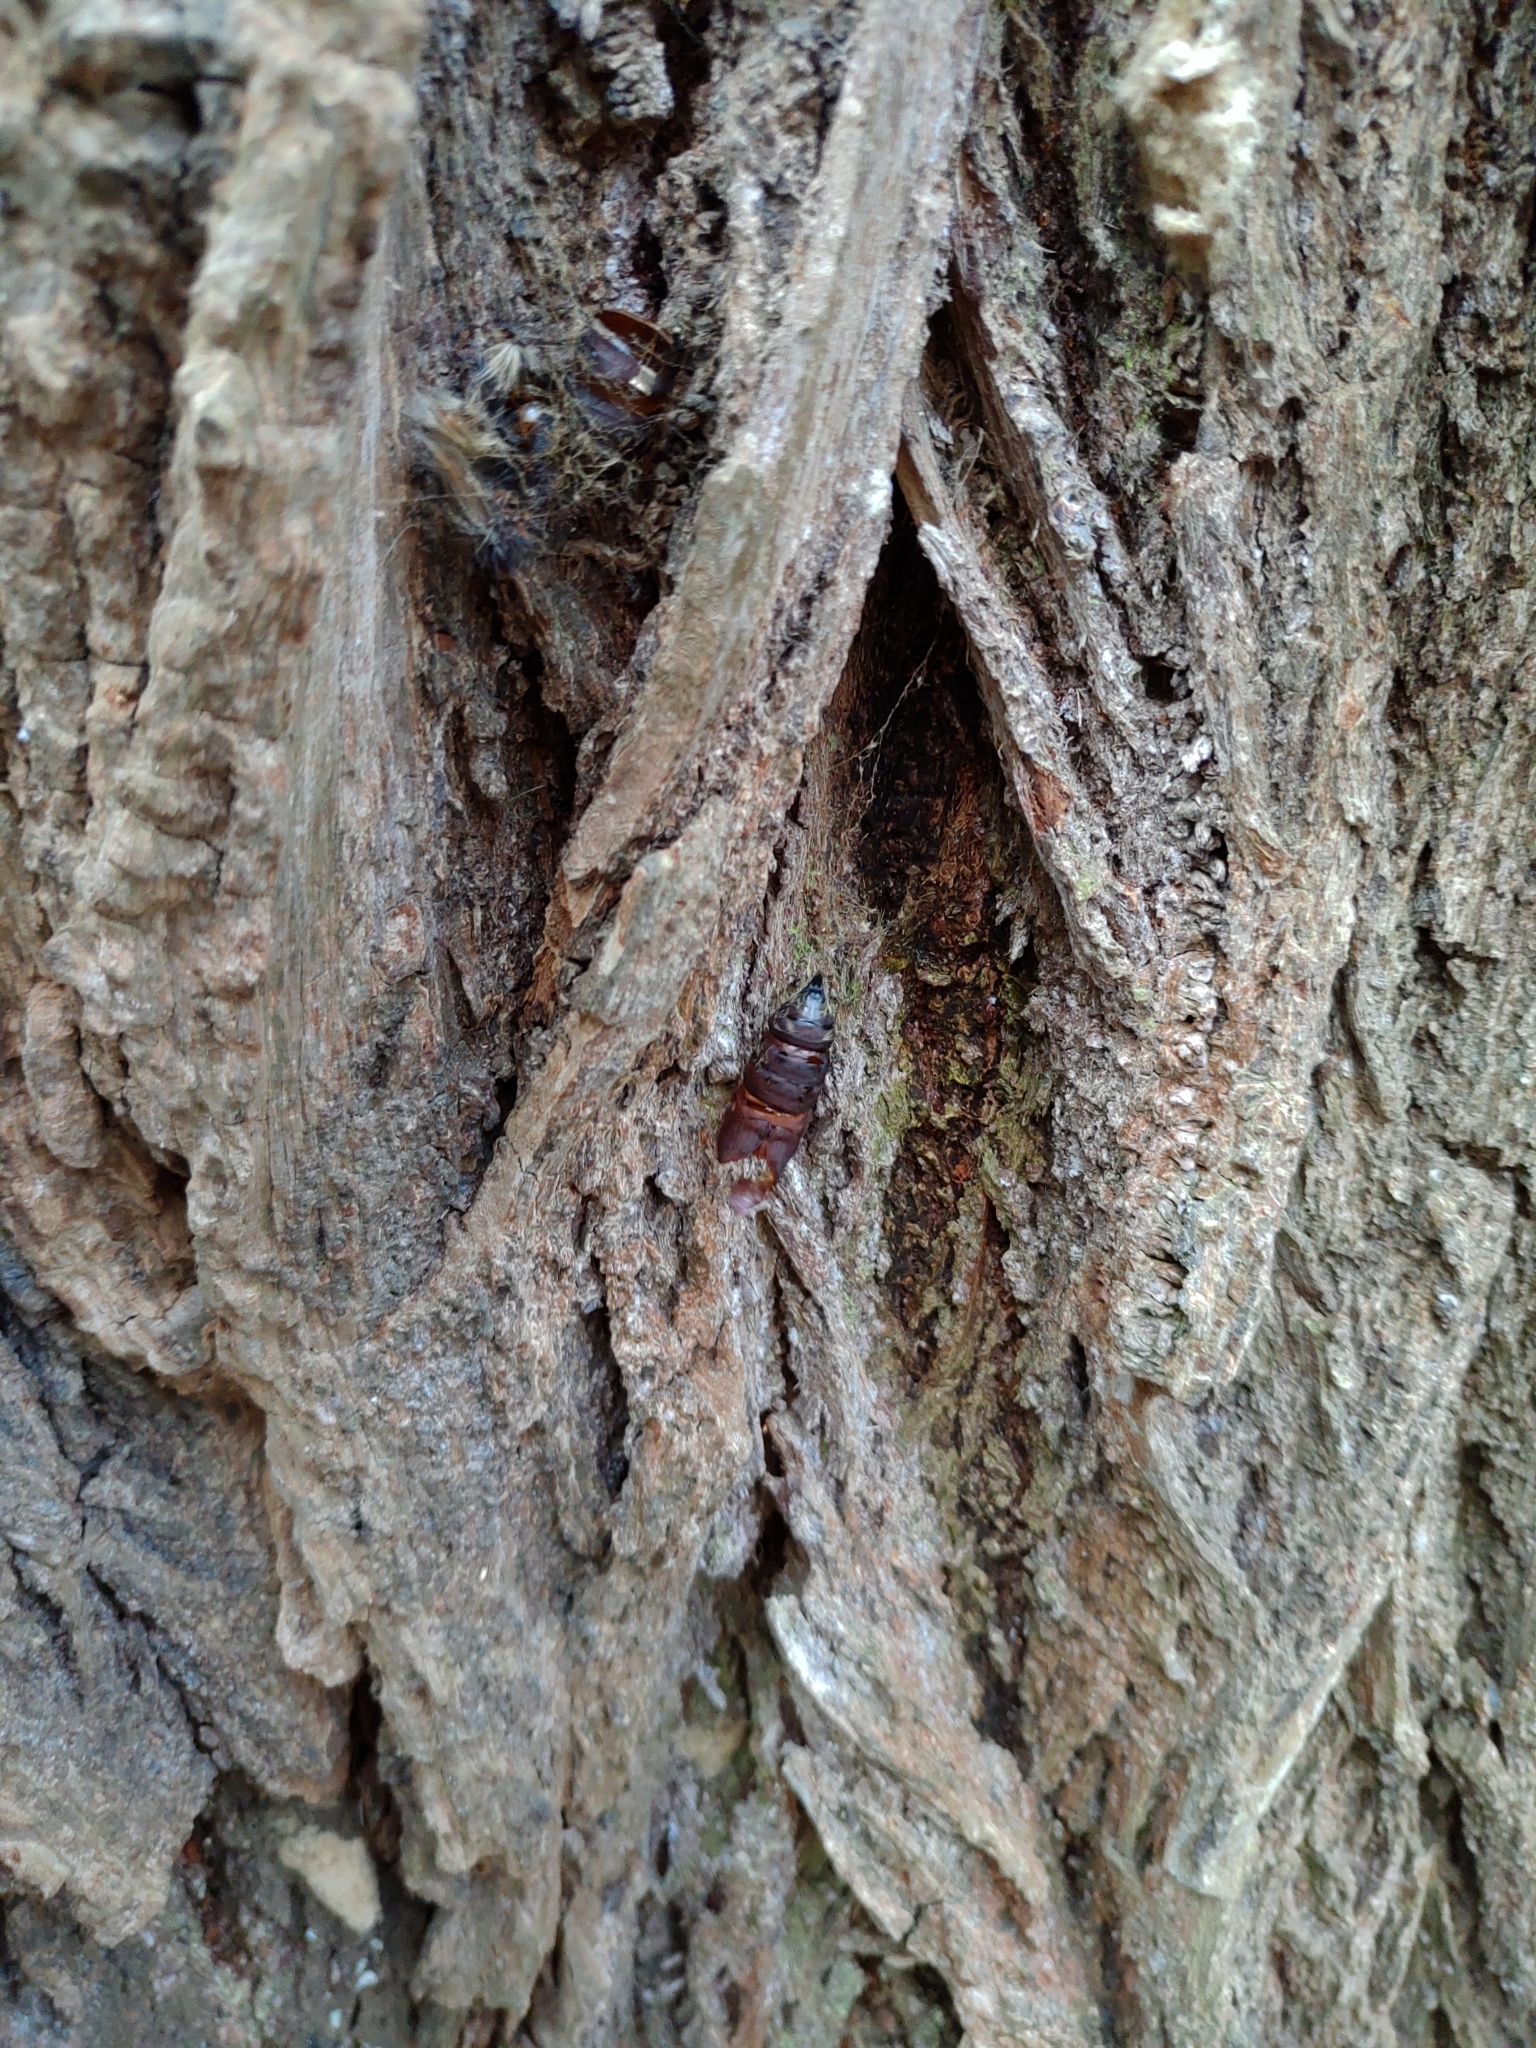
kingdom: Animalia
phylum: Arthropoda
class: Insecta
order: Lepidoptera
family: Erebidae
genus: Lymantria
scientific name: Lymantria dispar
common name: Gypsy moth
